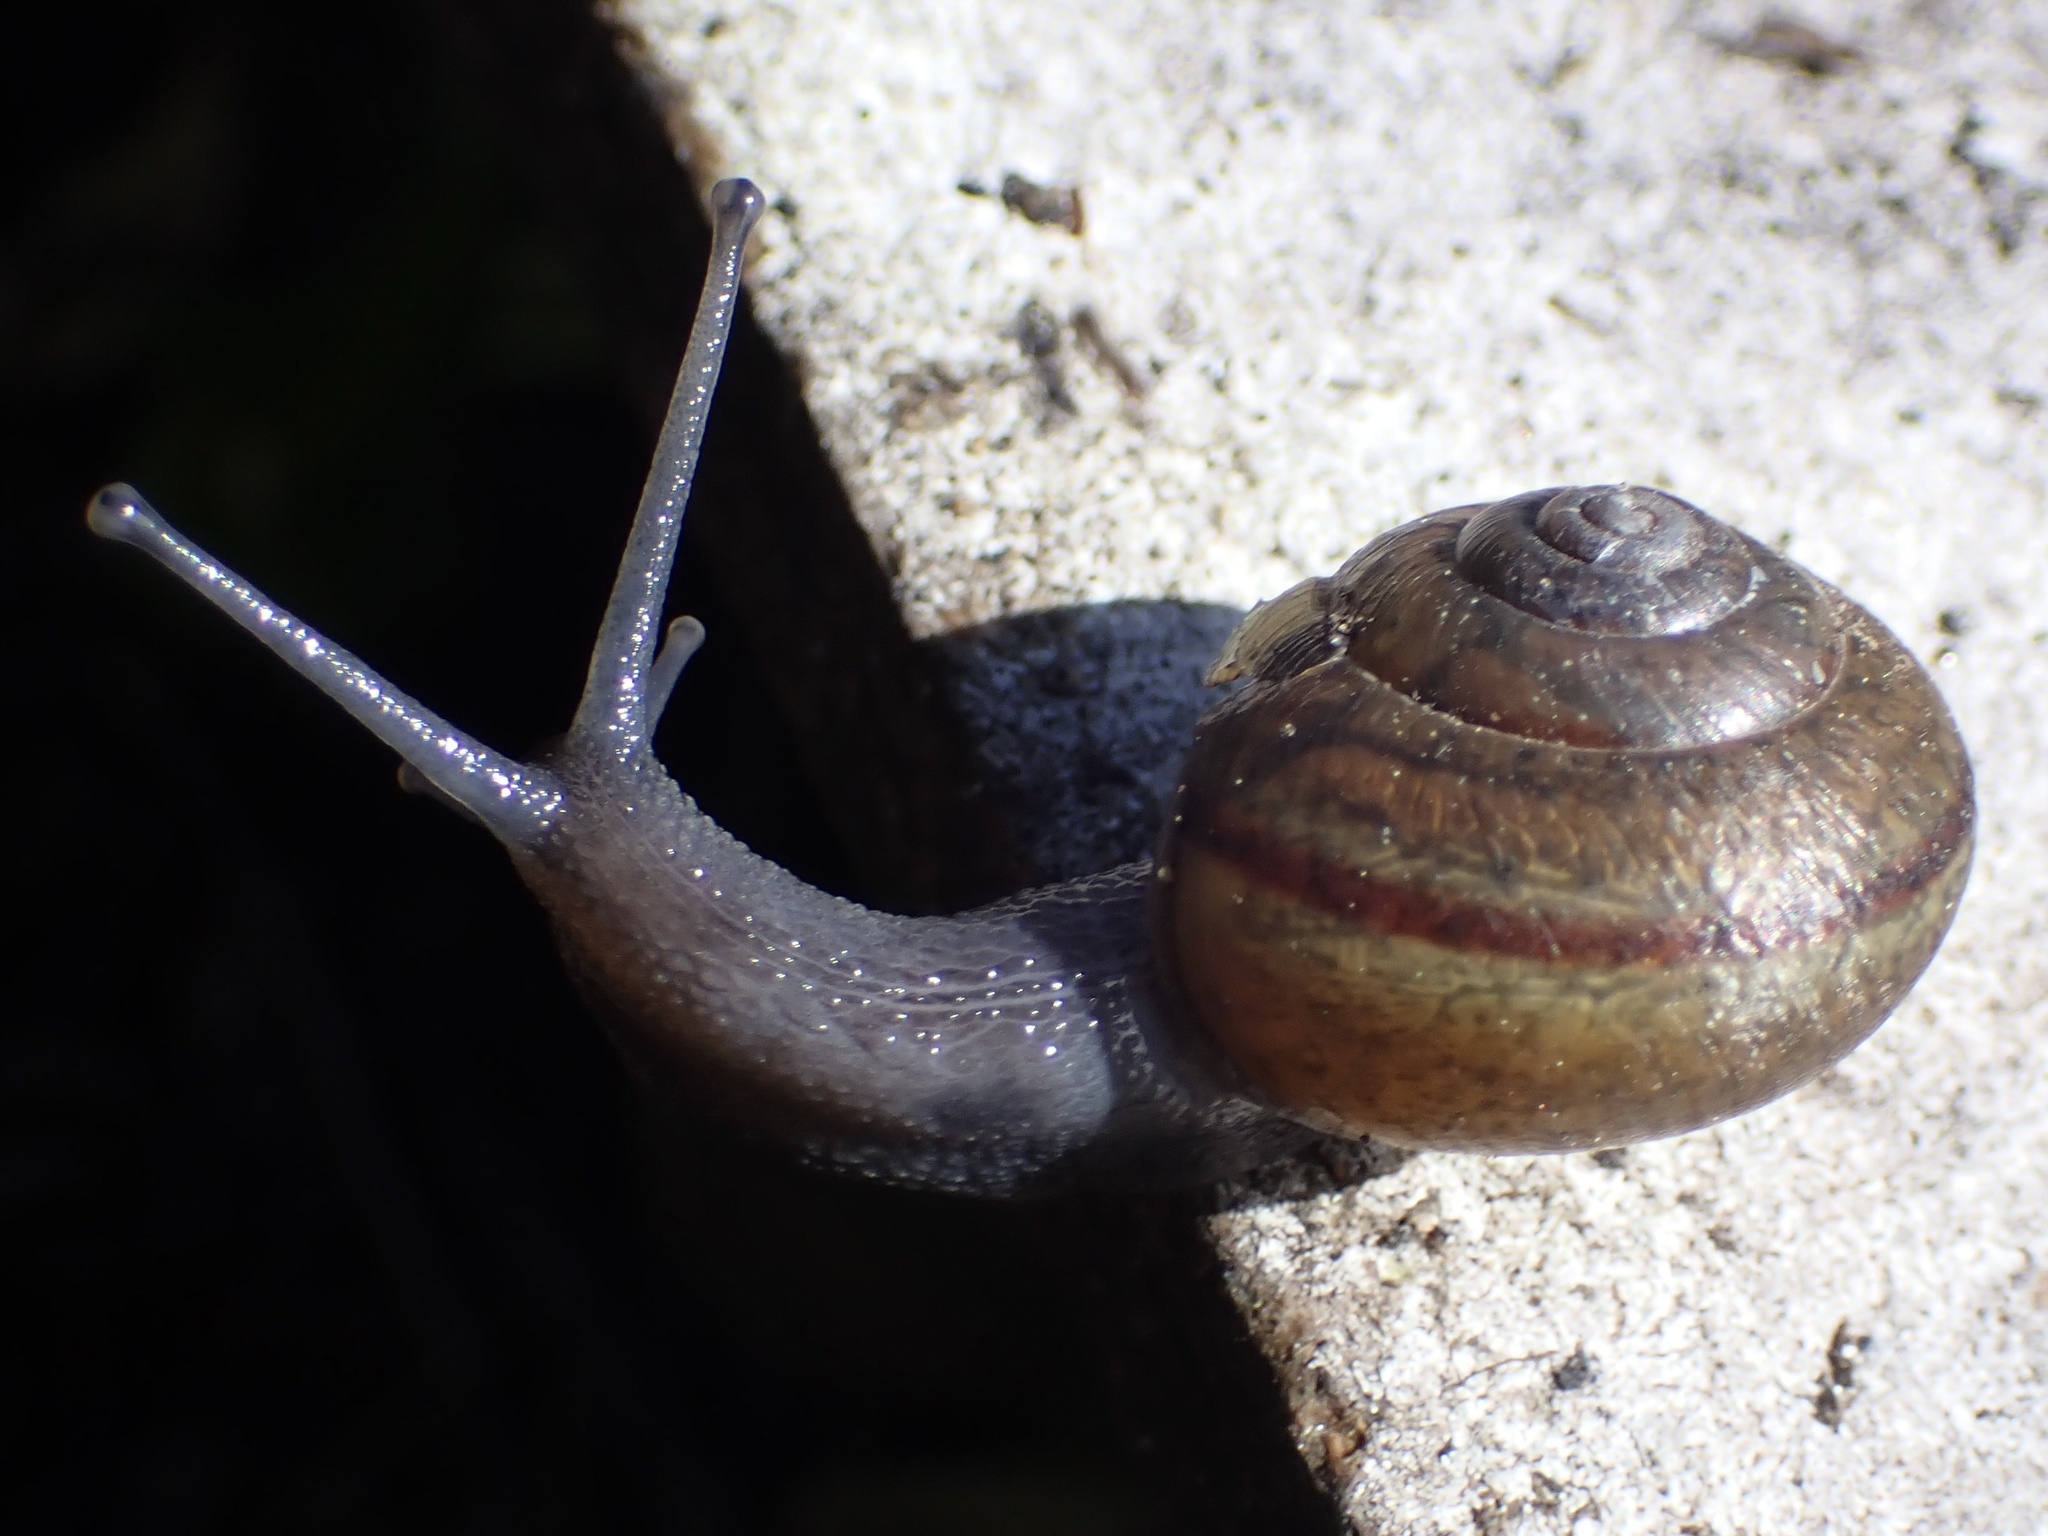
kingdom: Animalia
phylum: Mollusca
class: Gastropoda
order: Stylommatophora
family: Xanthonychidae
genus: Helminthoglypta
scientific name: Helminthoglypta tudiculata
